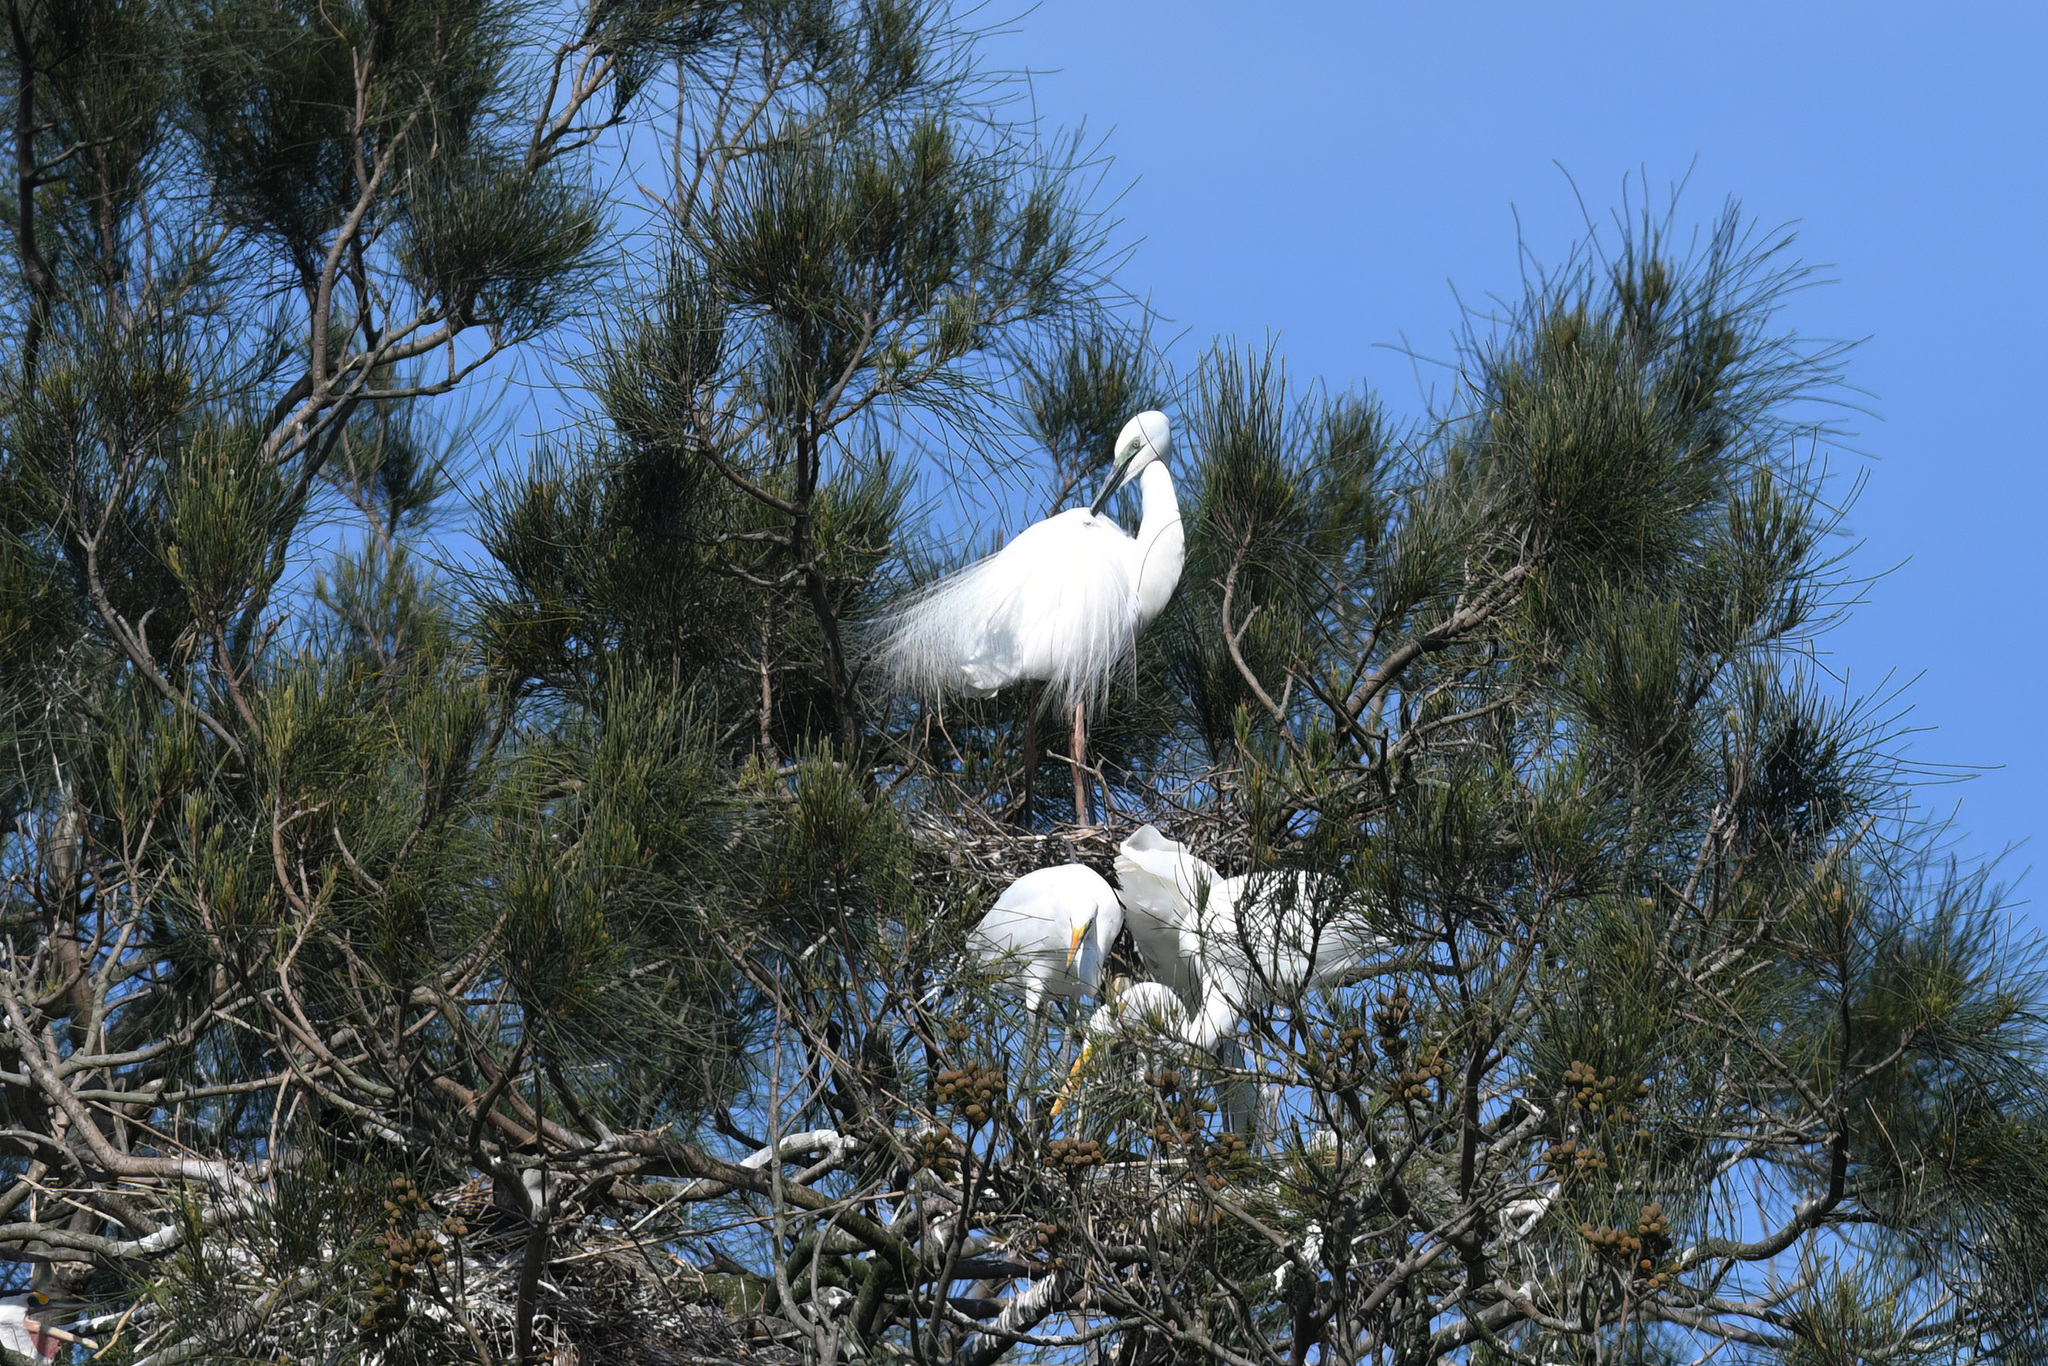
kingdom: Animalia
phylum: Chordata
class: Aves
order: Pelecaniformes
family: Ardeidae
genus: Ardea
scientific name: Ardea alba
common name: Great egret
